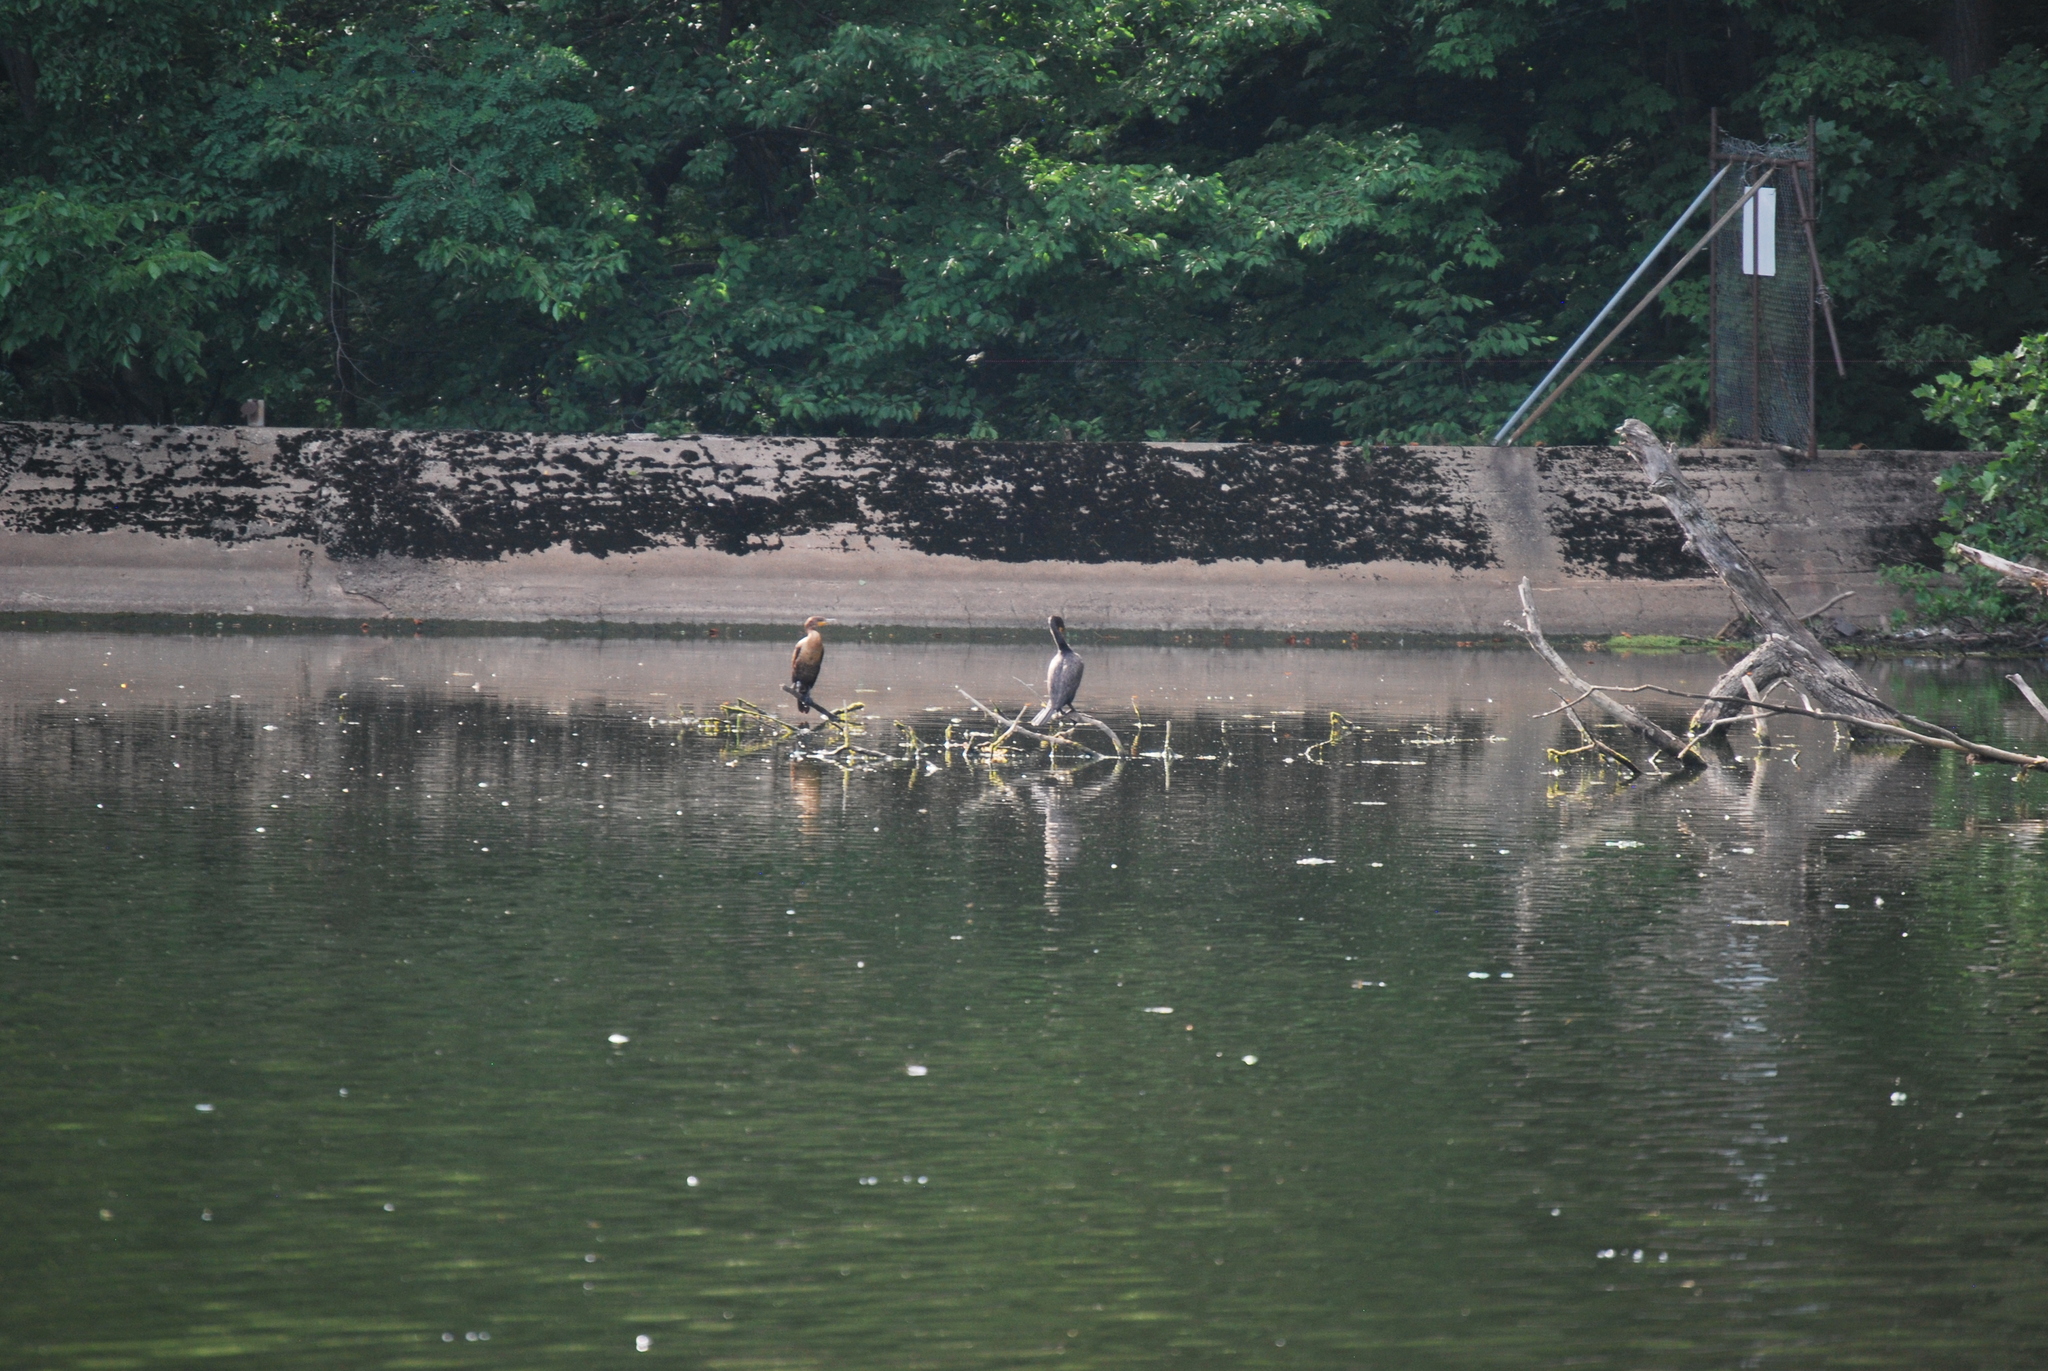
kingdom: Animalia
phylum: Chordata
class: Aves
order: Suliformes
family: Phalacrocoracidae
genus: Phalacrocorax
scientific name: Phalacrocorax auritus
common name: Double-crested cormorant
